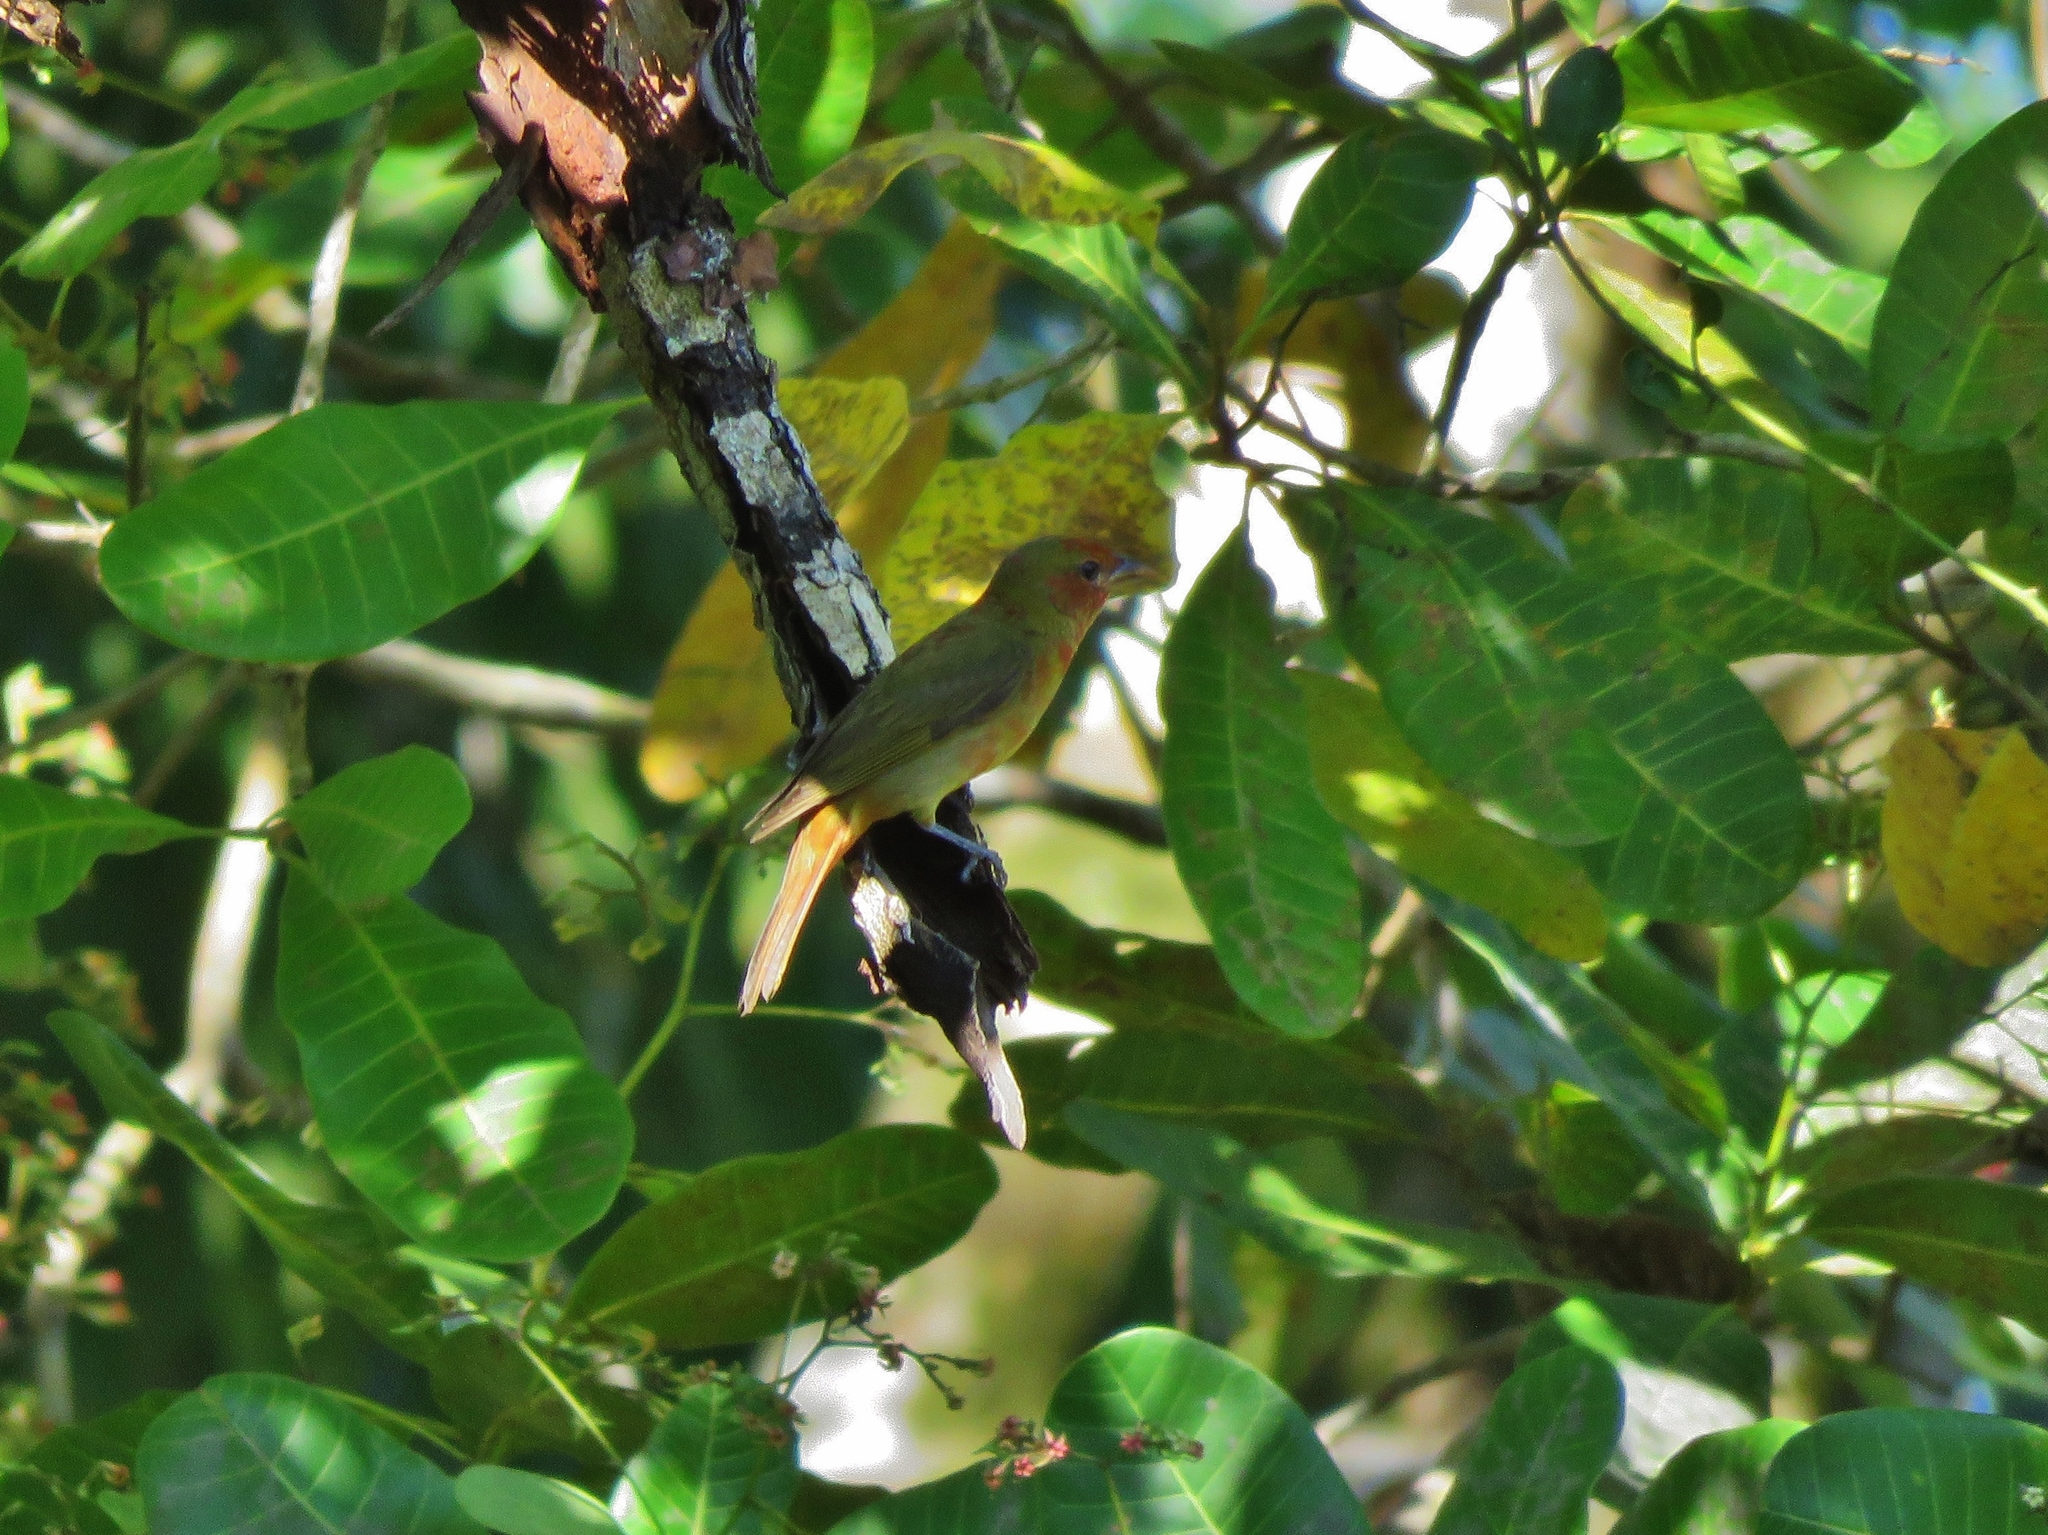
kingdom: Animalia
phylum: Chordata
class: Aves
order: Passeriformes
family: Cardinalidae
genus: Piranga
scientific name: Piranga rubra
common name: Summer tanager
